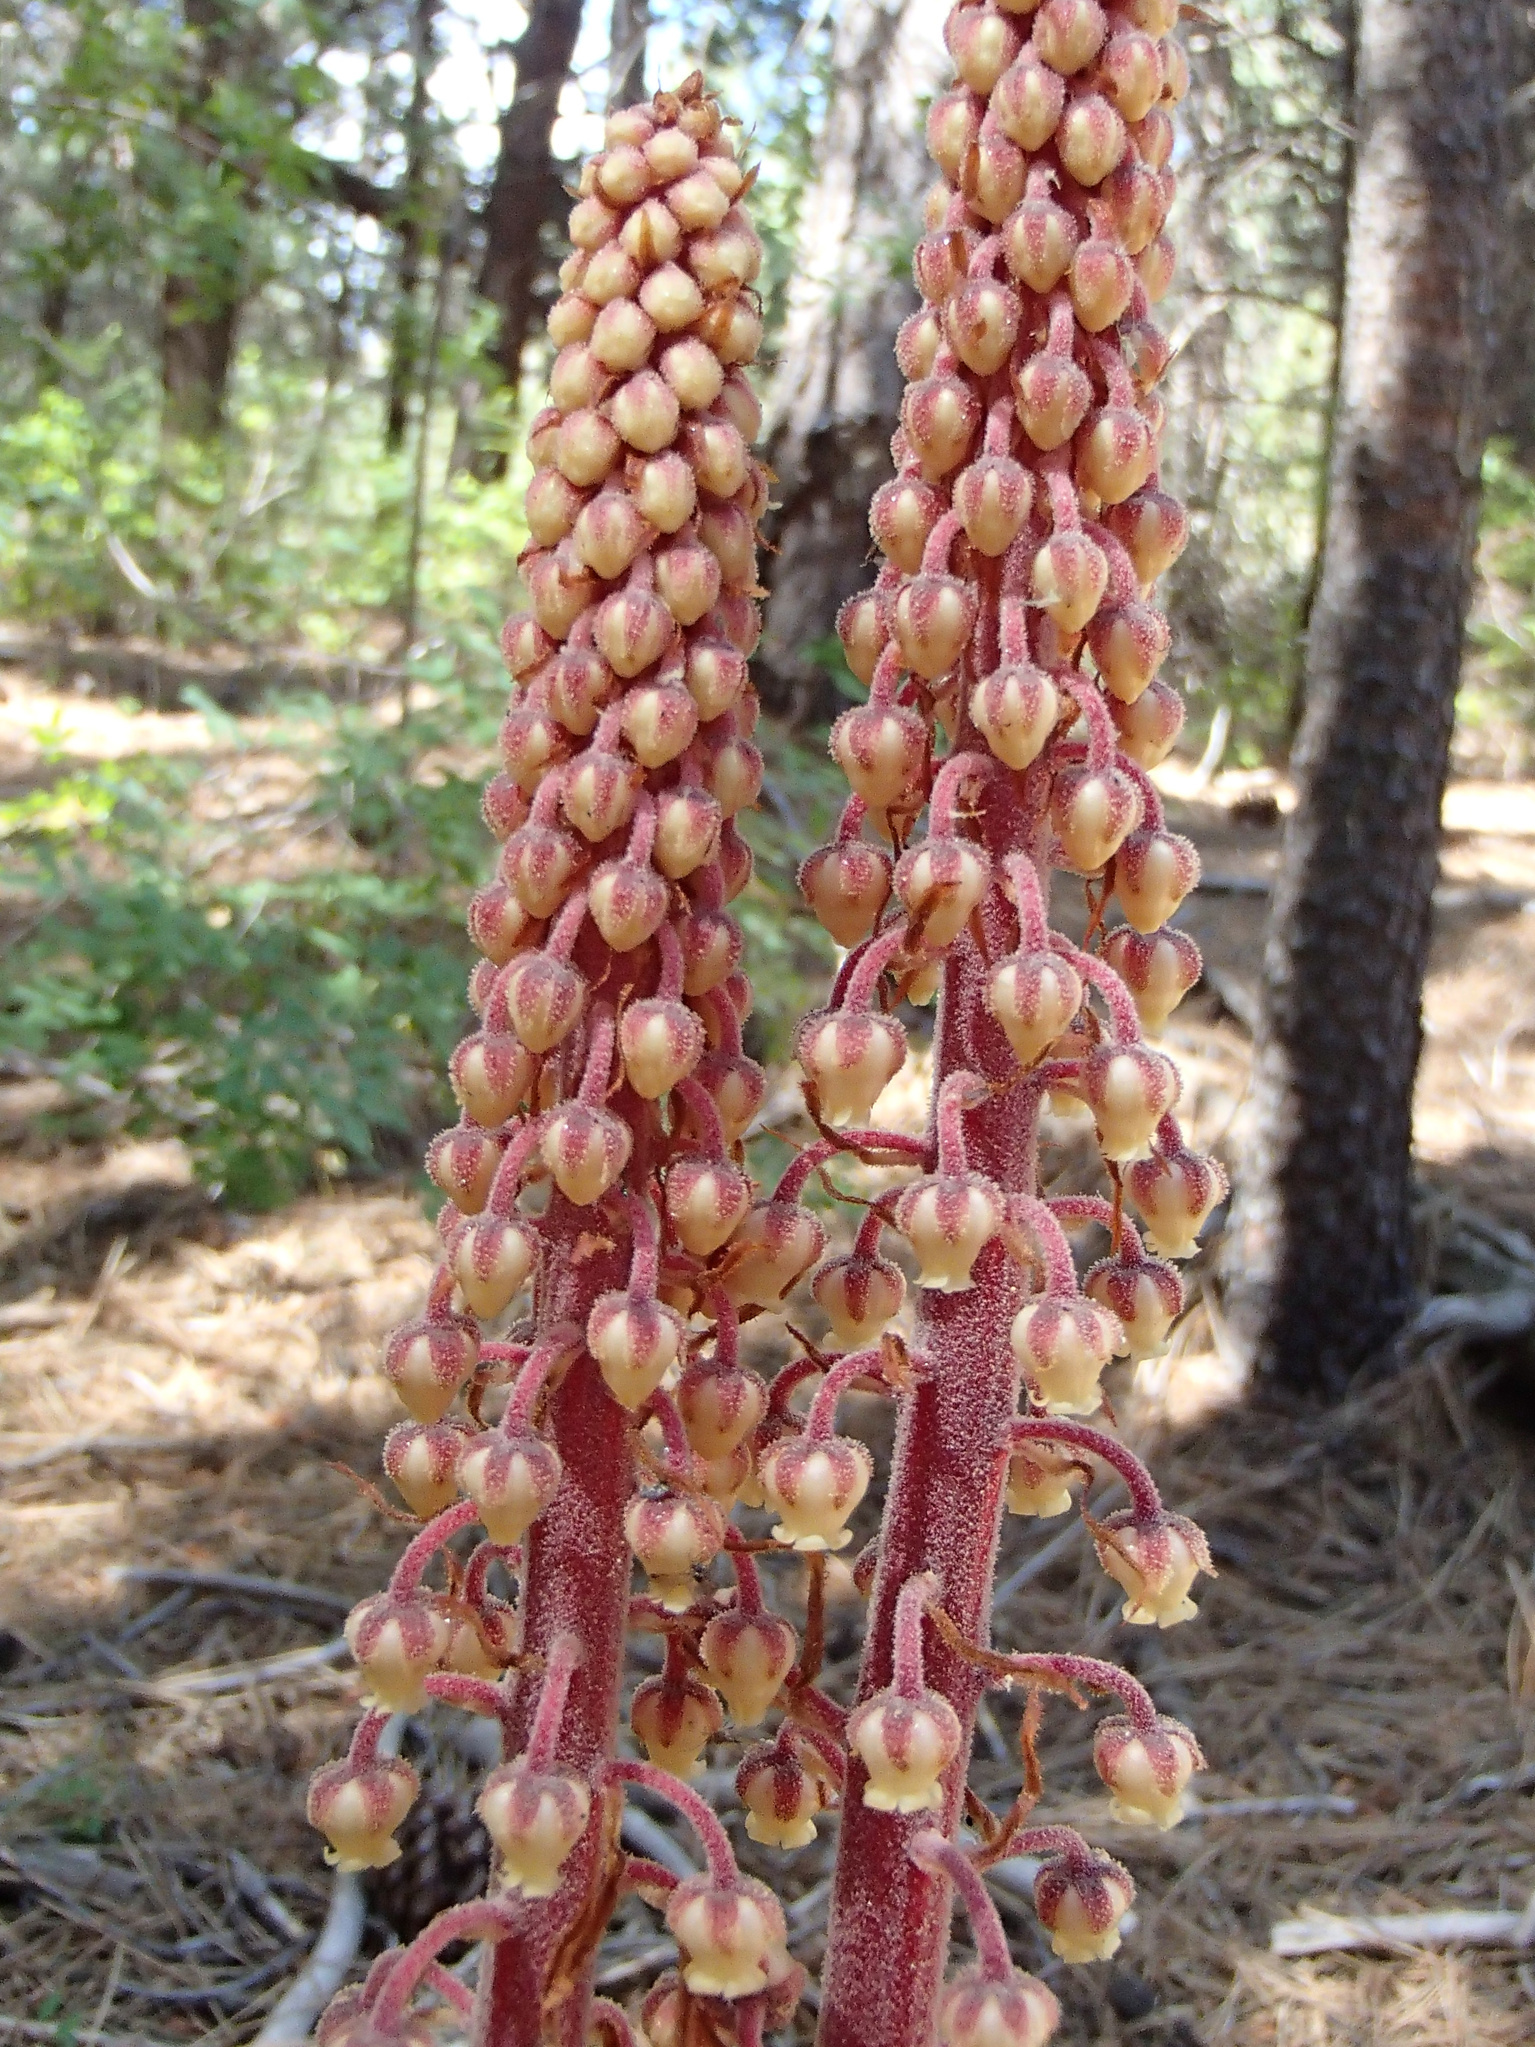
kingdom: Plantae
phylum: Tracheophyta
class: Magnoliopsida
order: Ericales
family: Ericaceae
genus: Pterospora
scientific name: Pterospora andromedea
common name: Giant bird's-nest
